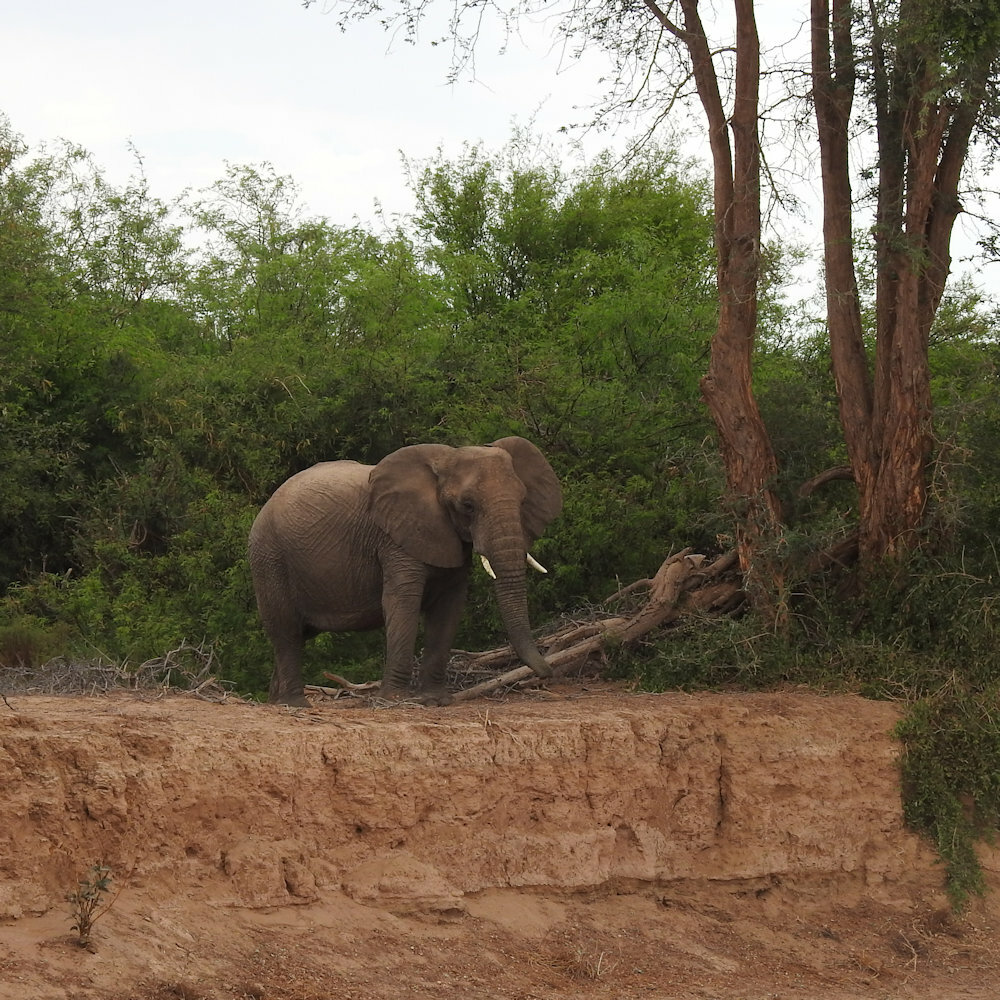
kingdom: Animalia
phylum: Chordata
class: Mammalia
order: Proboscidea
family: Elephantidae
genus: Loxodonta
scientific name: Loxodonta africana
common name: African elephant
